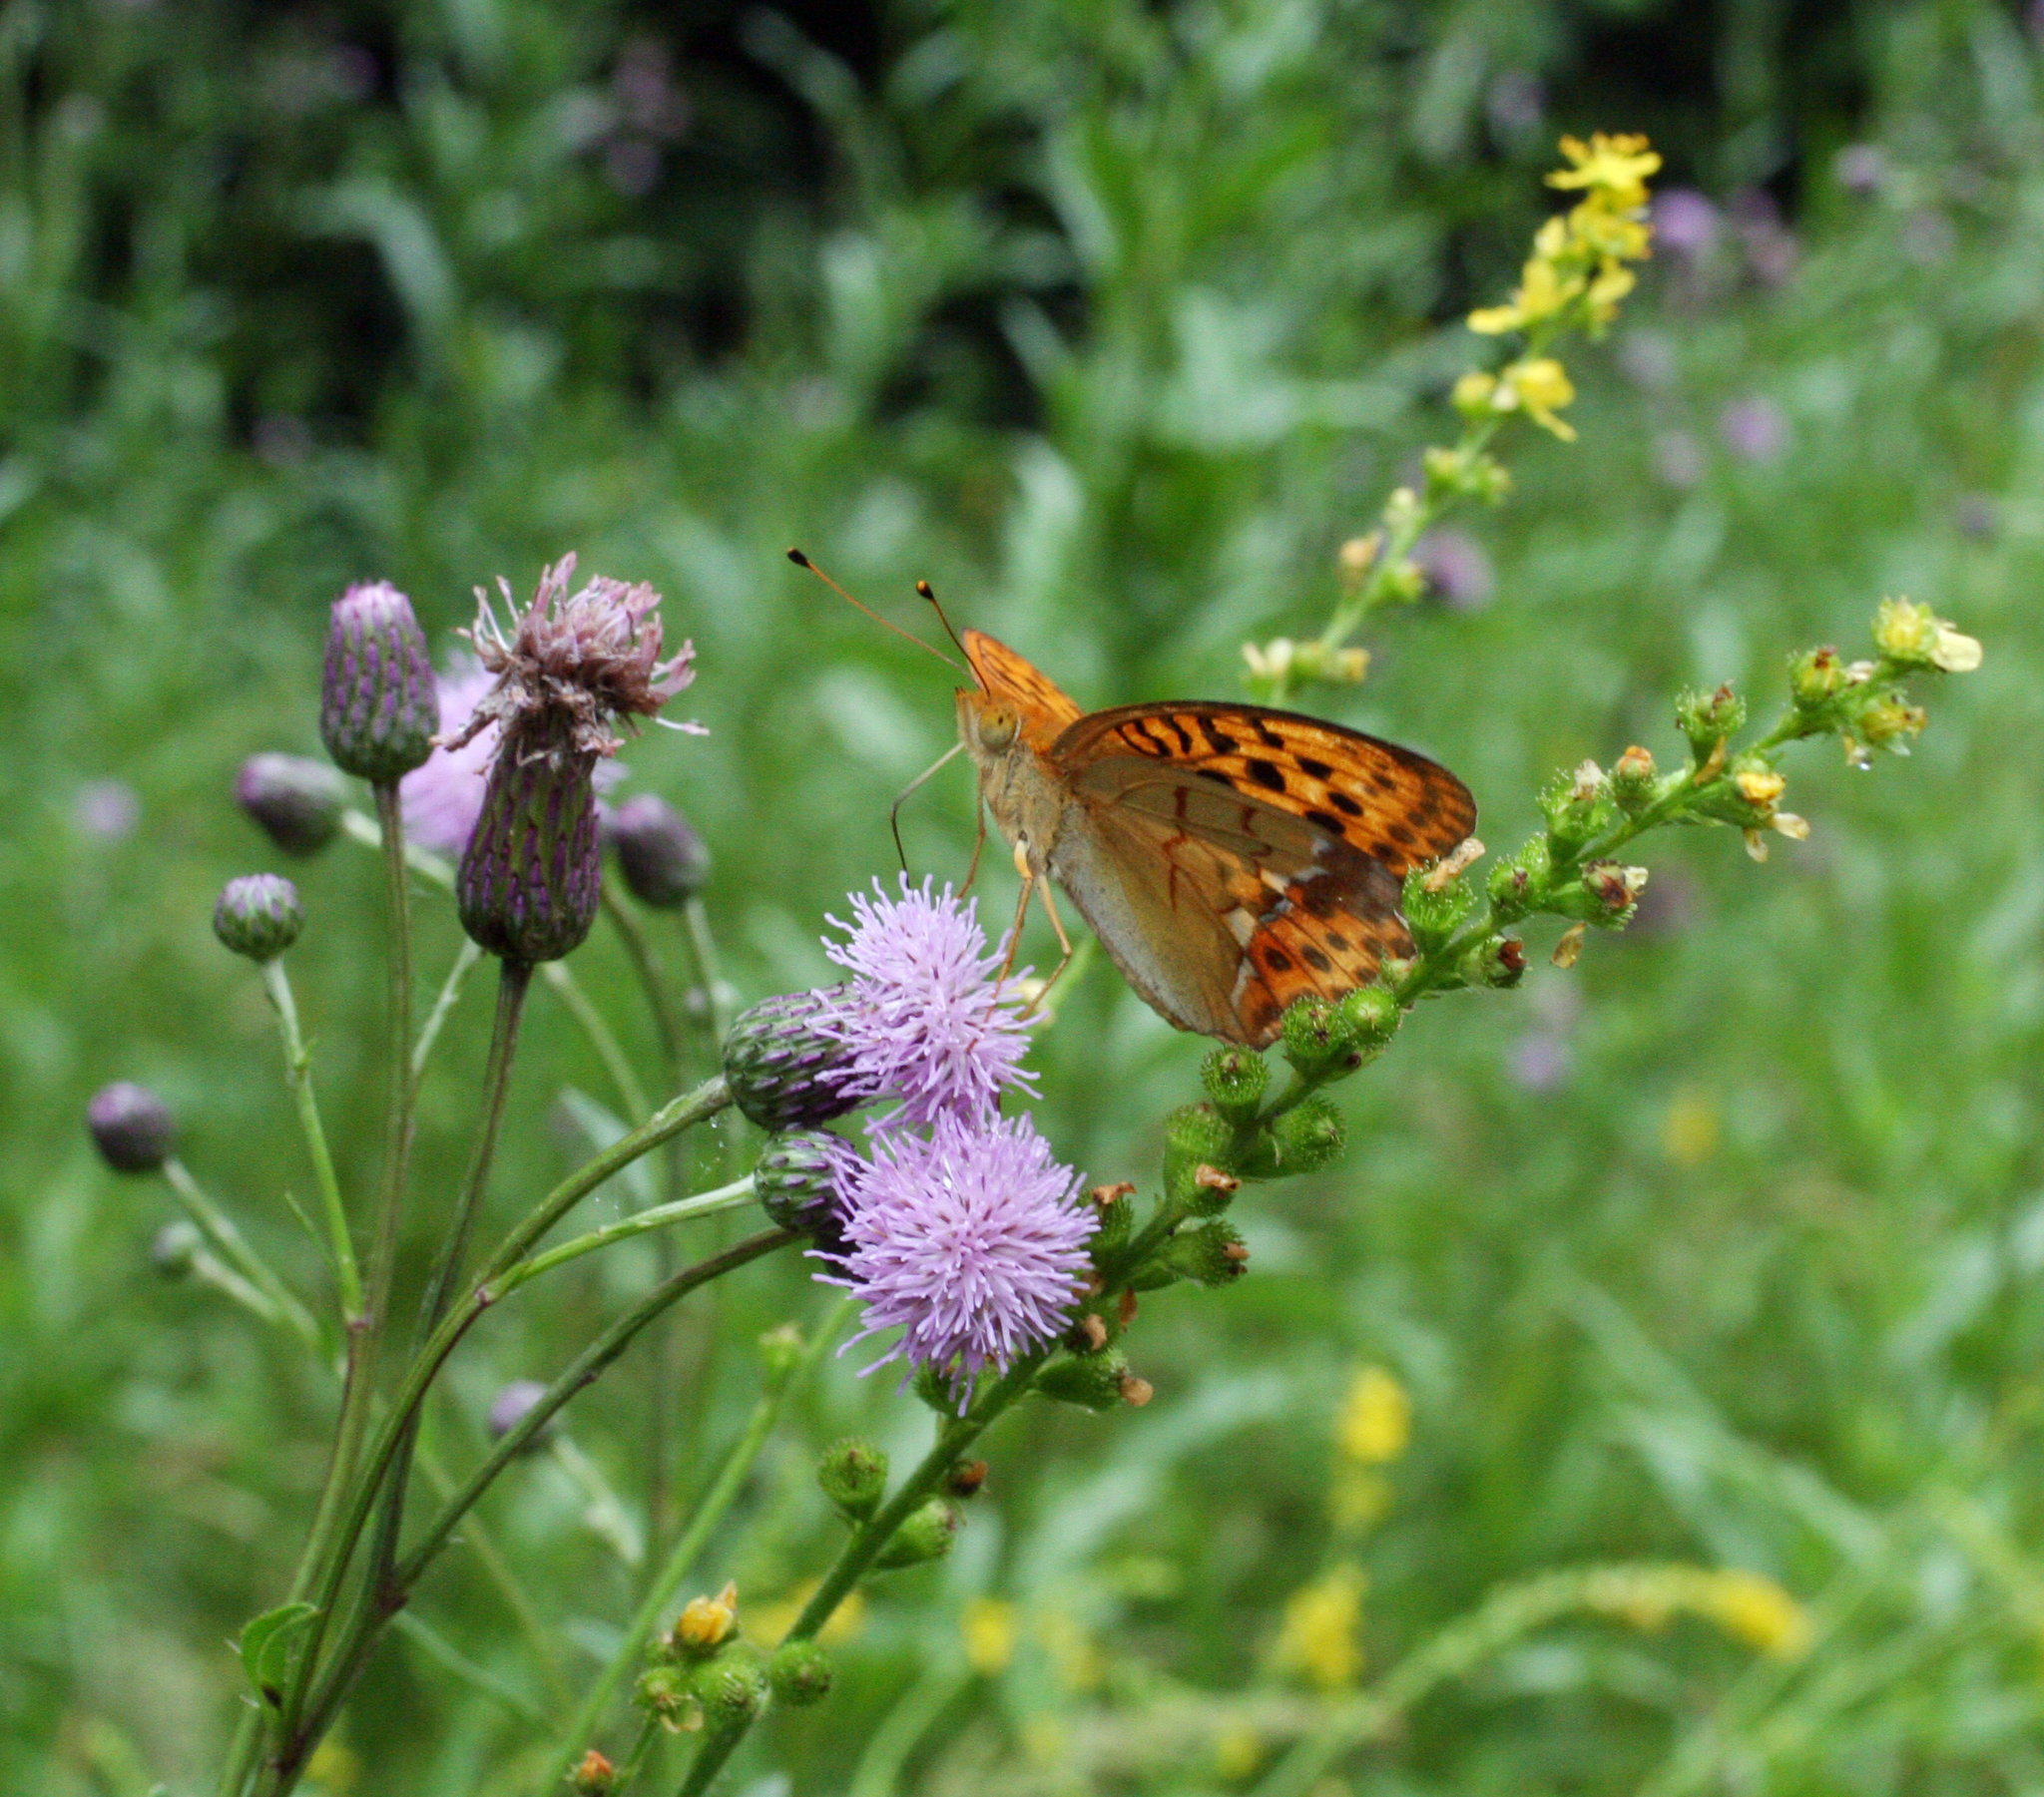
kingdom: Animalia
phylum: Arthropoda
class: Insecta
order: Lepidoptera
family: Nymphalidae
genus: Argyronome
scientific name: Argyronome laodice
